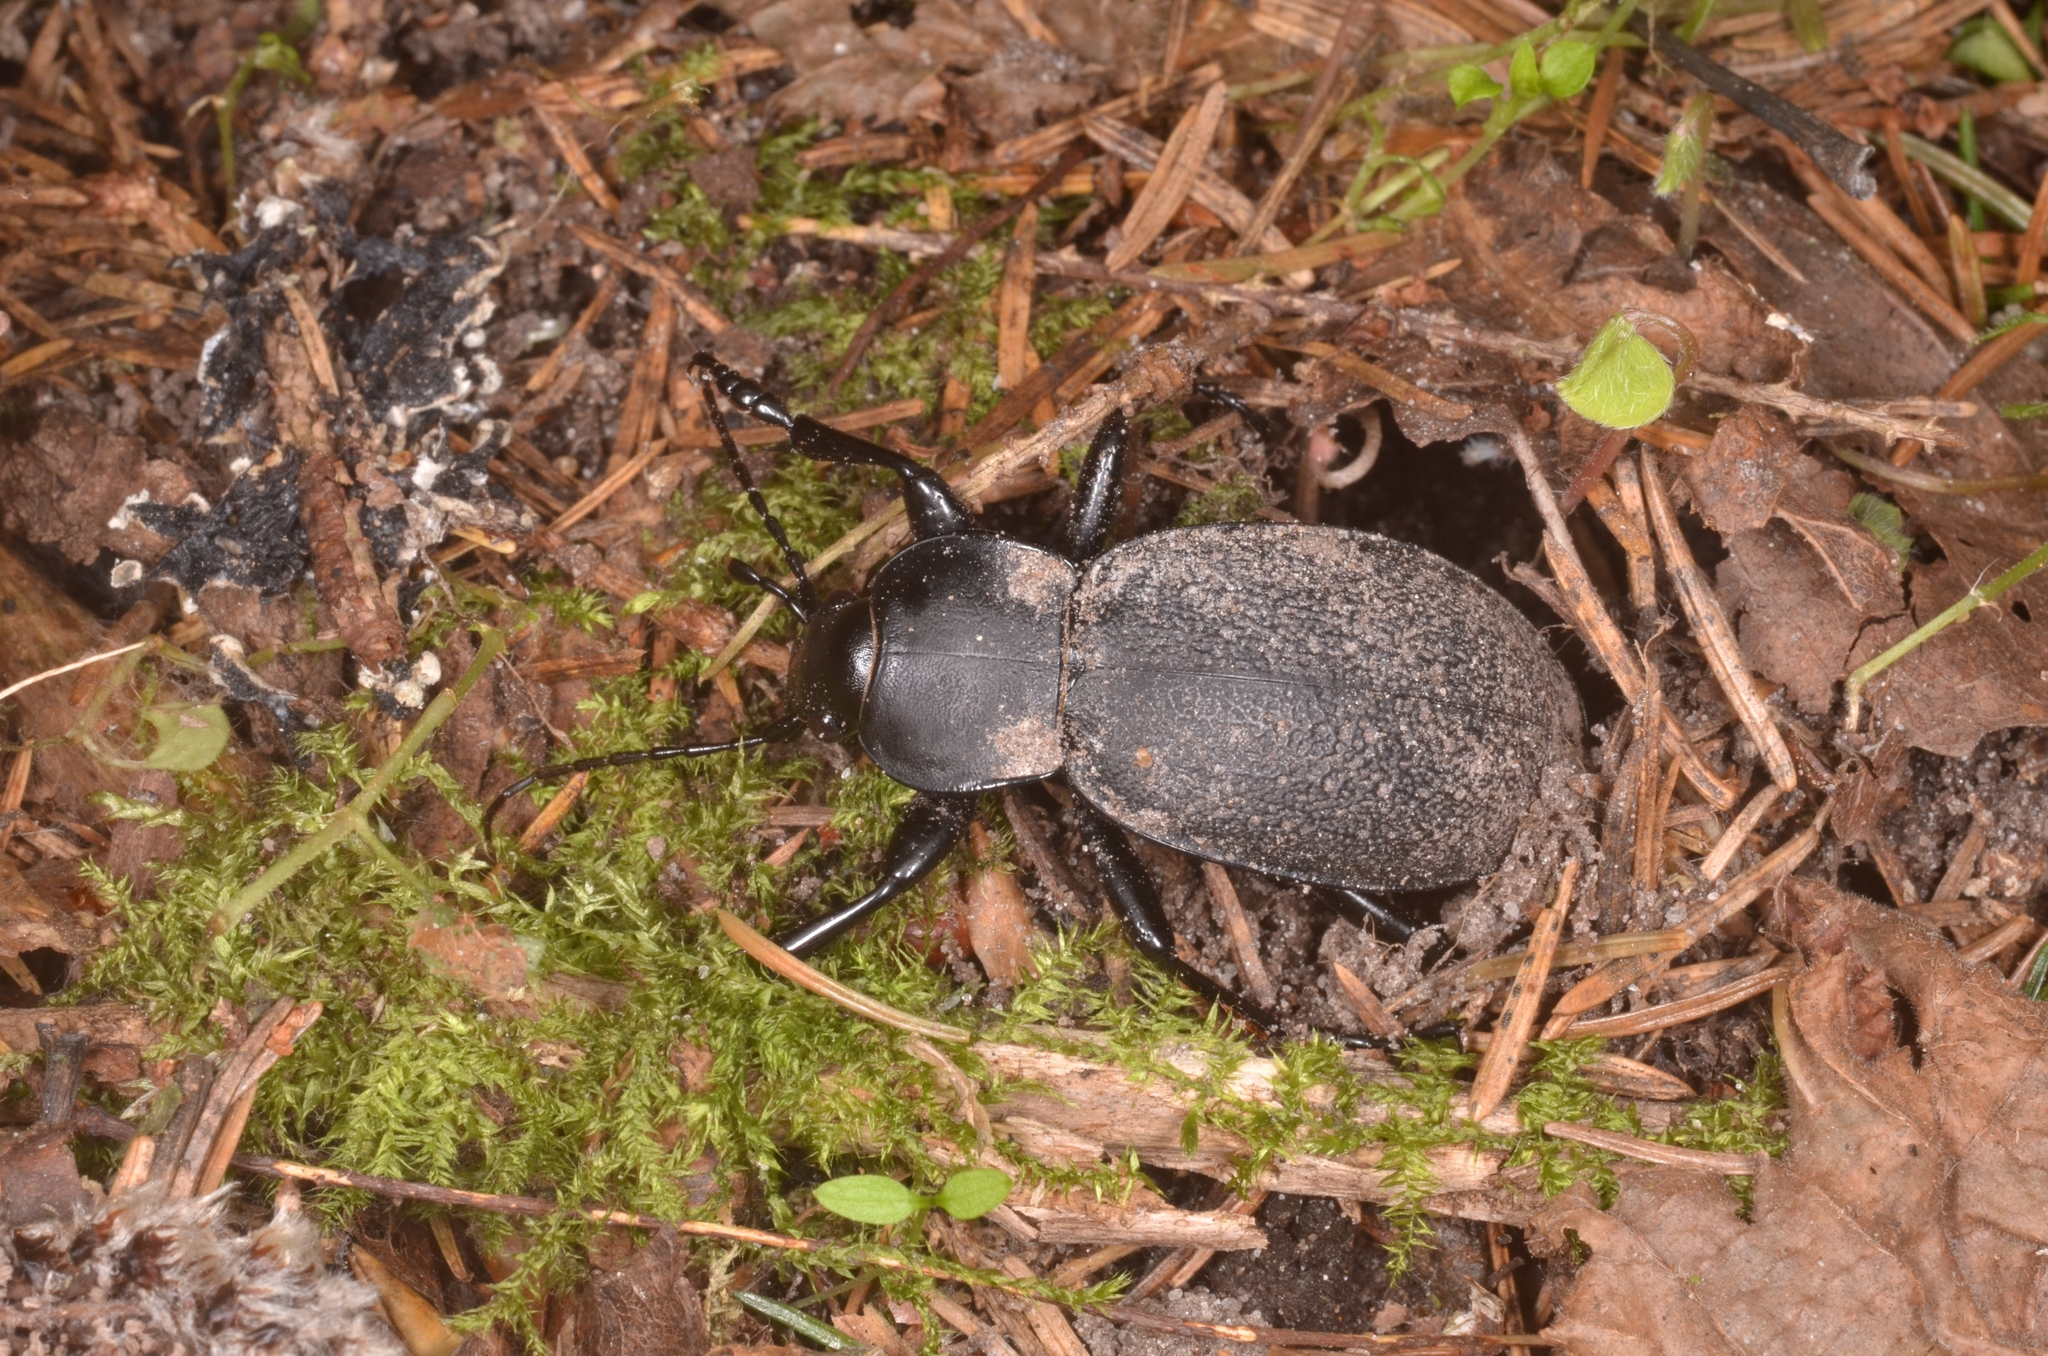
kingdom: Animalia
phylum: Arthropoda
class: Insecta
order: Coleoptera
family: Carabidae
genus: Carabus
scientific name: Carabus coriaceus
